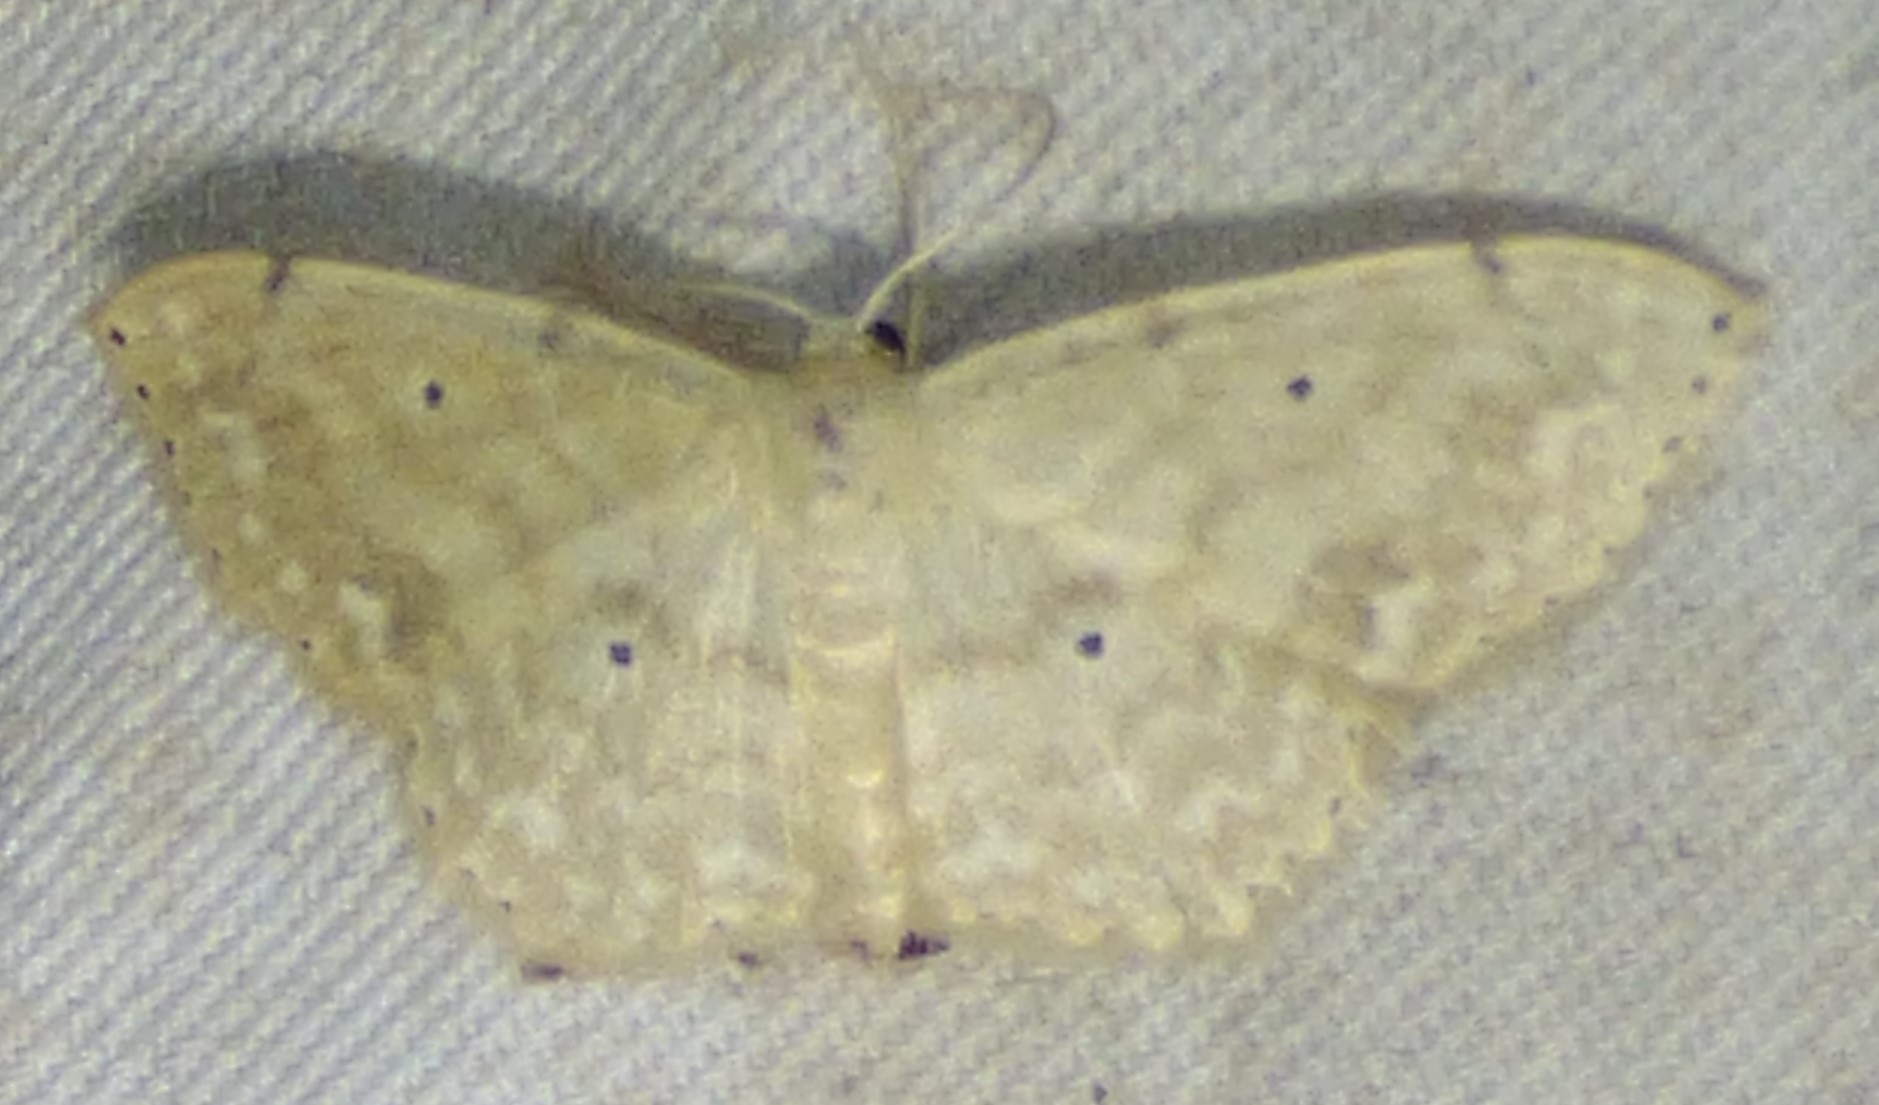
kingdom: Animalia
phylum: Arthropoda
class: Insecta
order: Lepidoptera
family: Geometridae
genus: Scopula
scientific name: Scopula compensata
